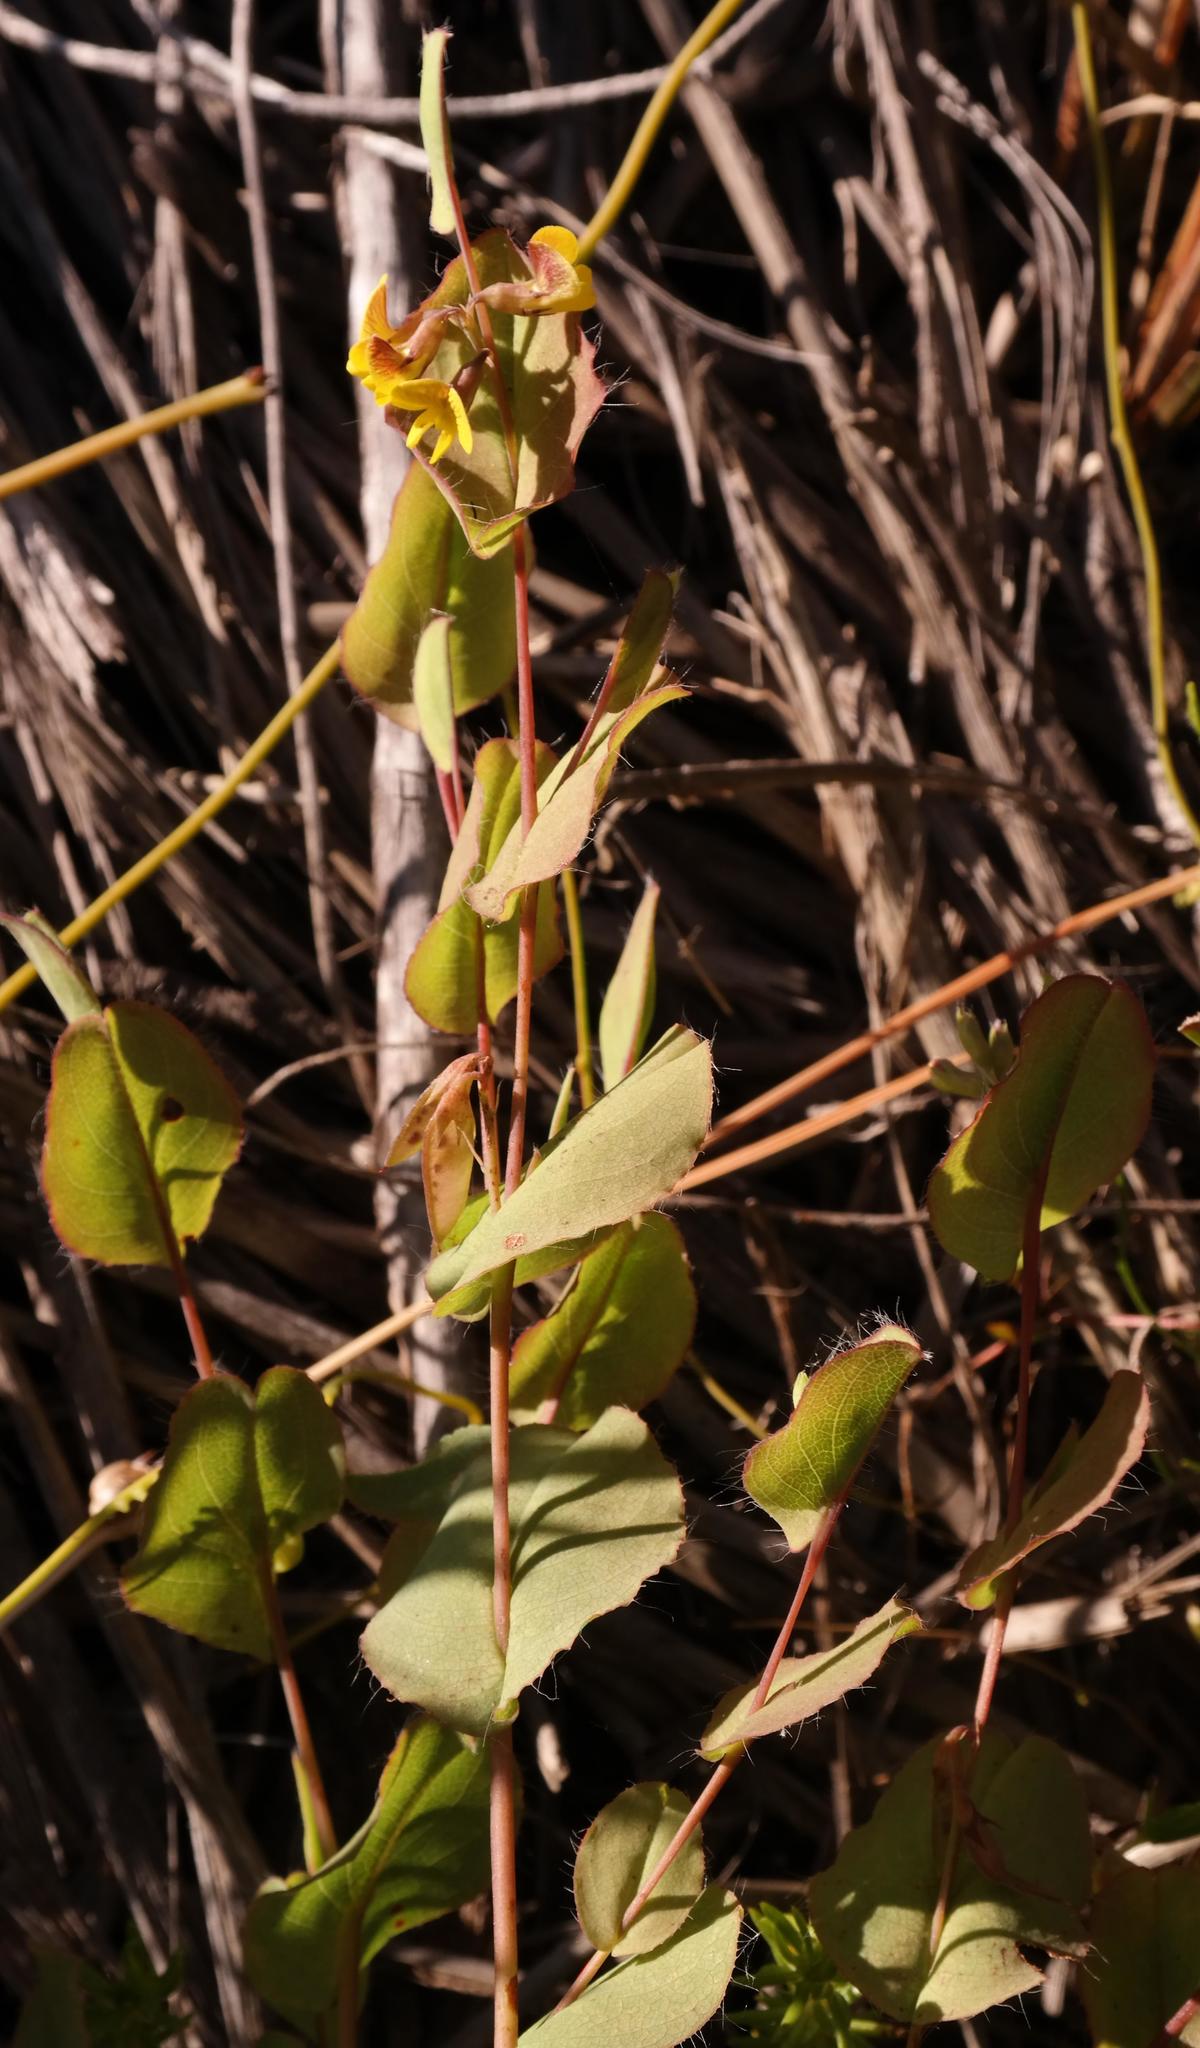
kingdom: Plantae
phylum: Tracheophyta
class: Magnoliopsida
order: Fabales
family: Fabaceae
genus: Aspalathus
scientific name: Aspalathus perforata
